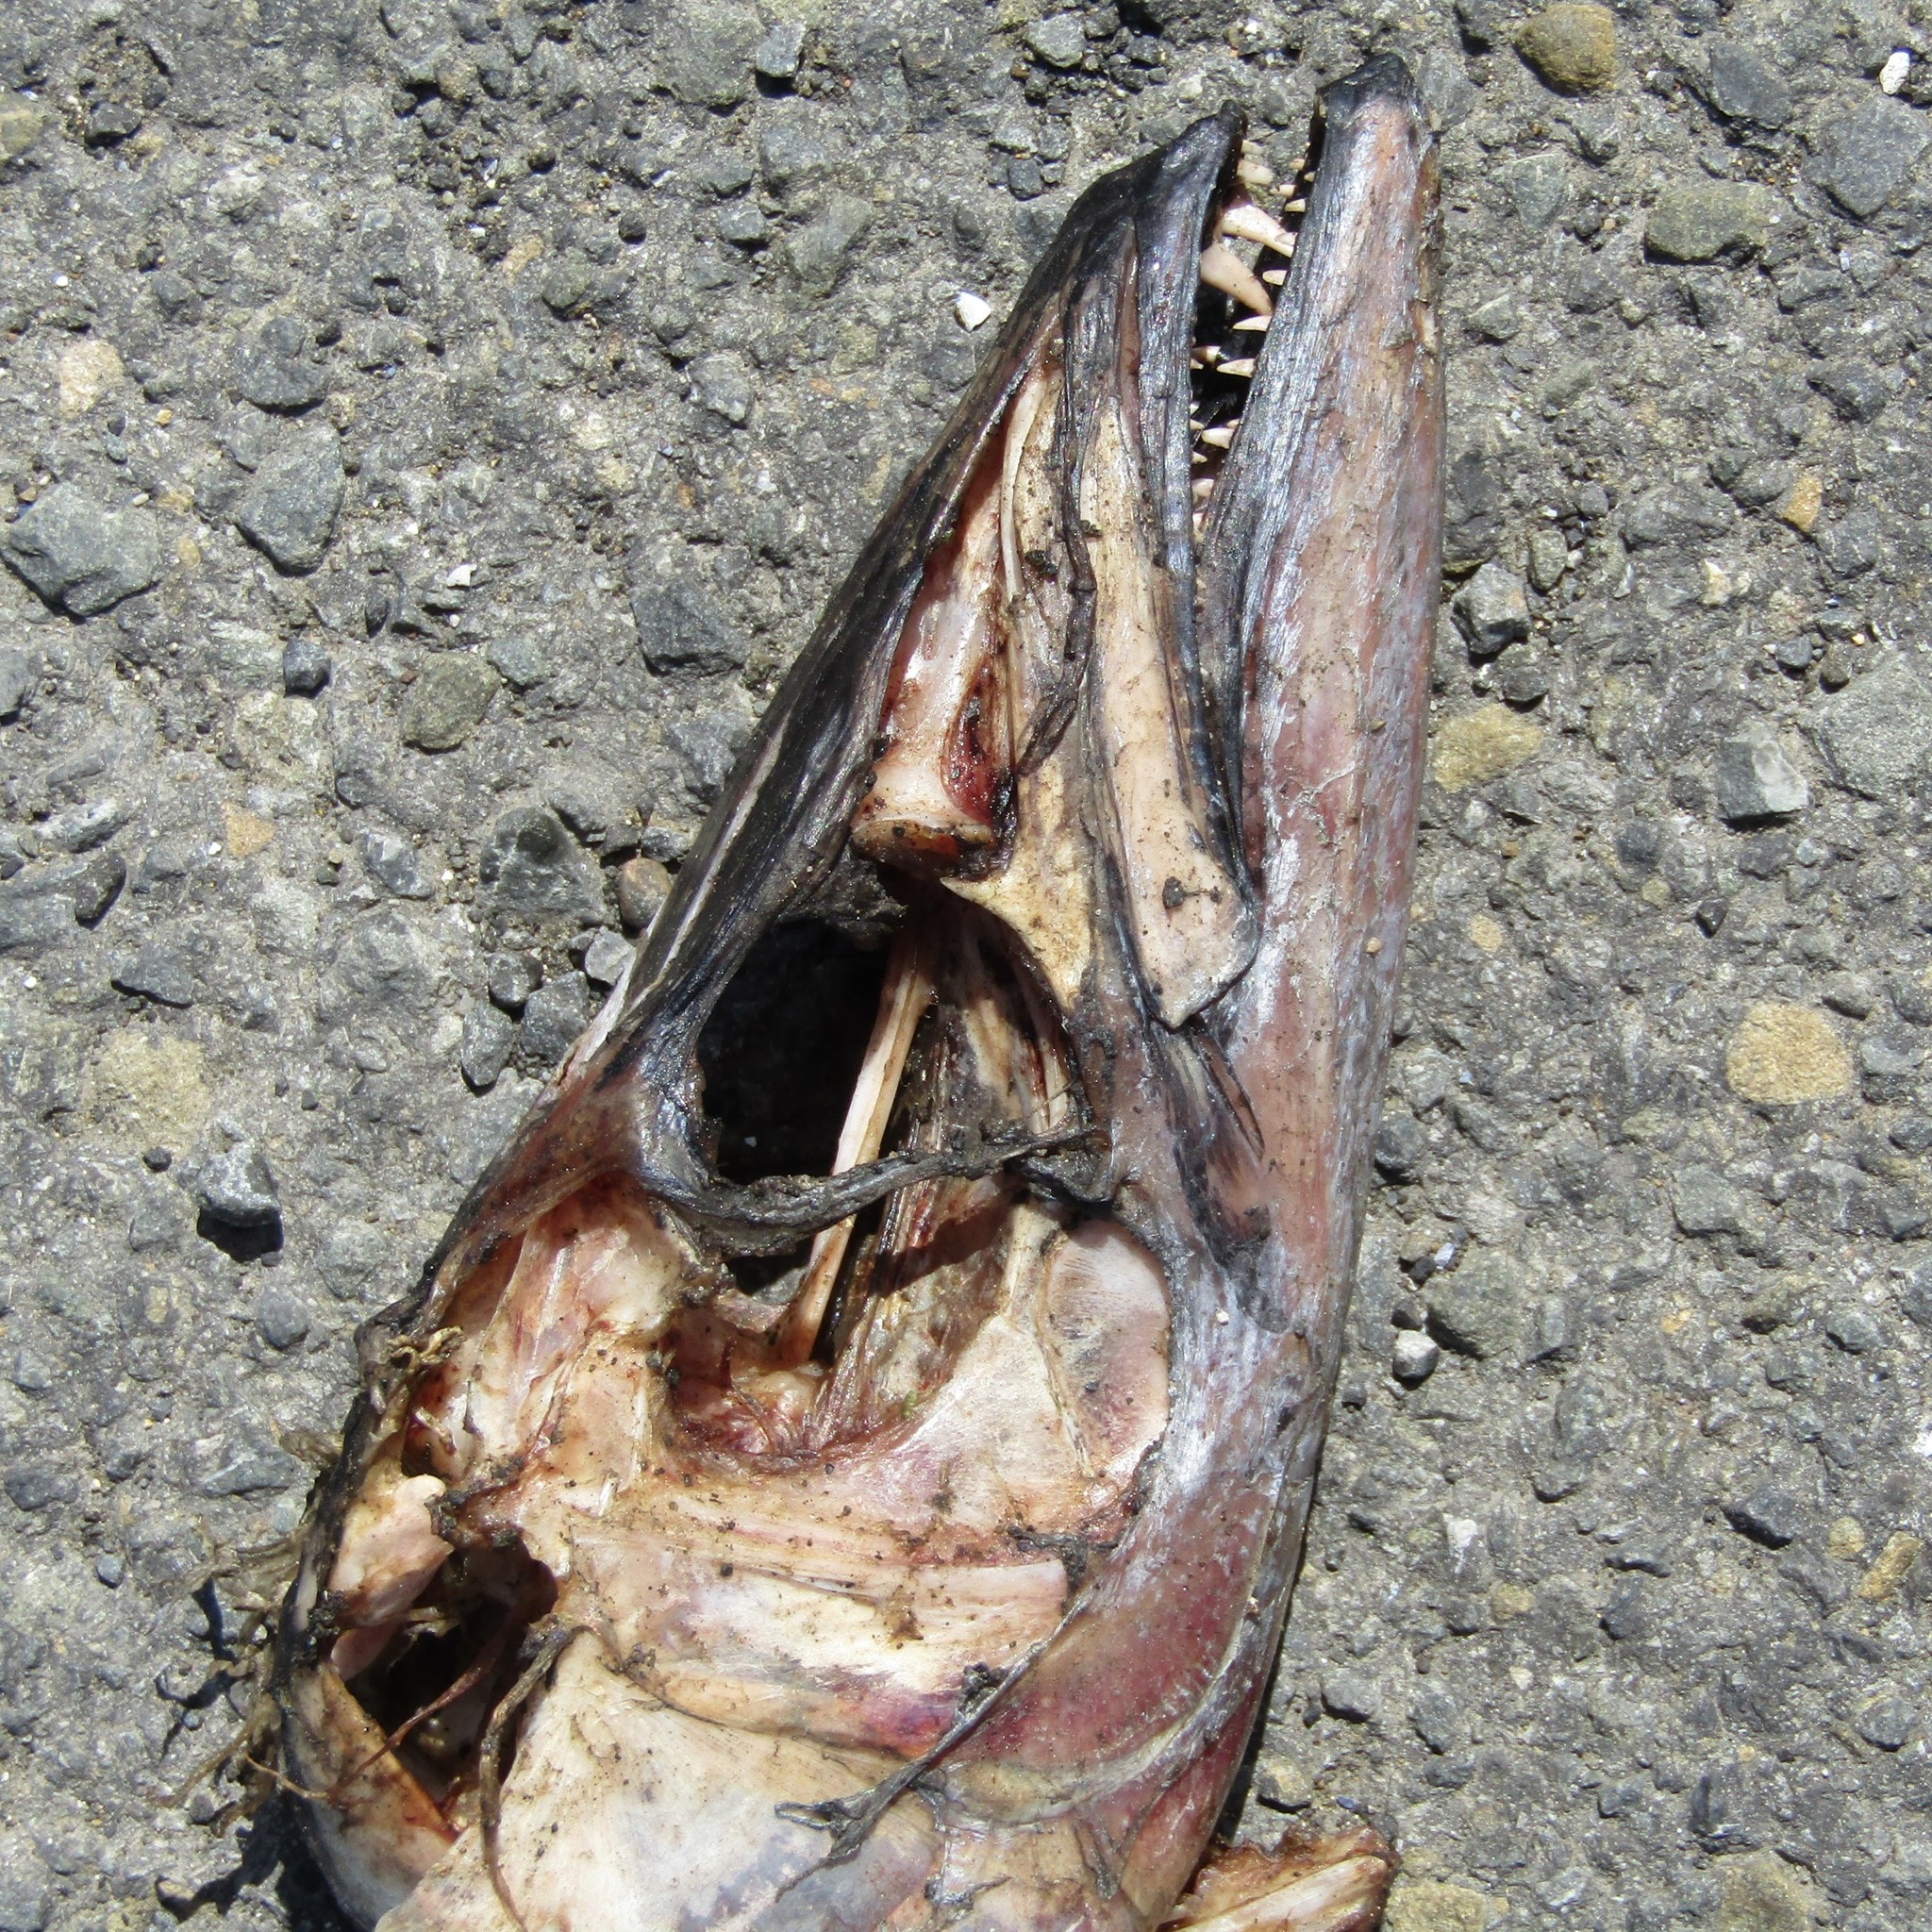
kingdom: Animalia
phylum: Chordata
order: Perciformes
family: Gempylidae
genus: Thyrsites
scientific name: Thyrsites atun
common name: Snoek
